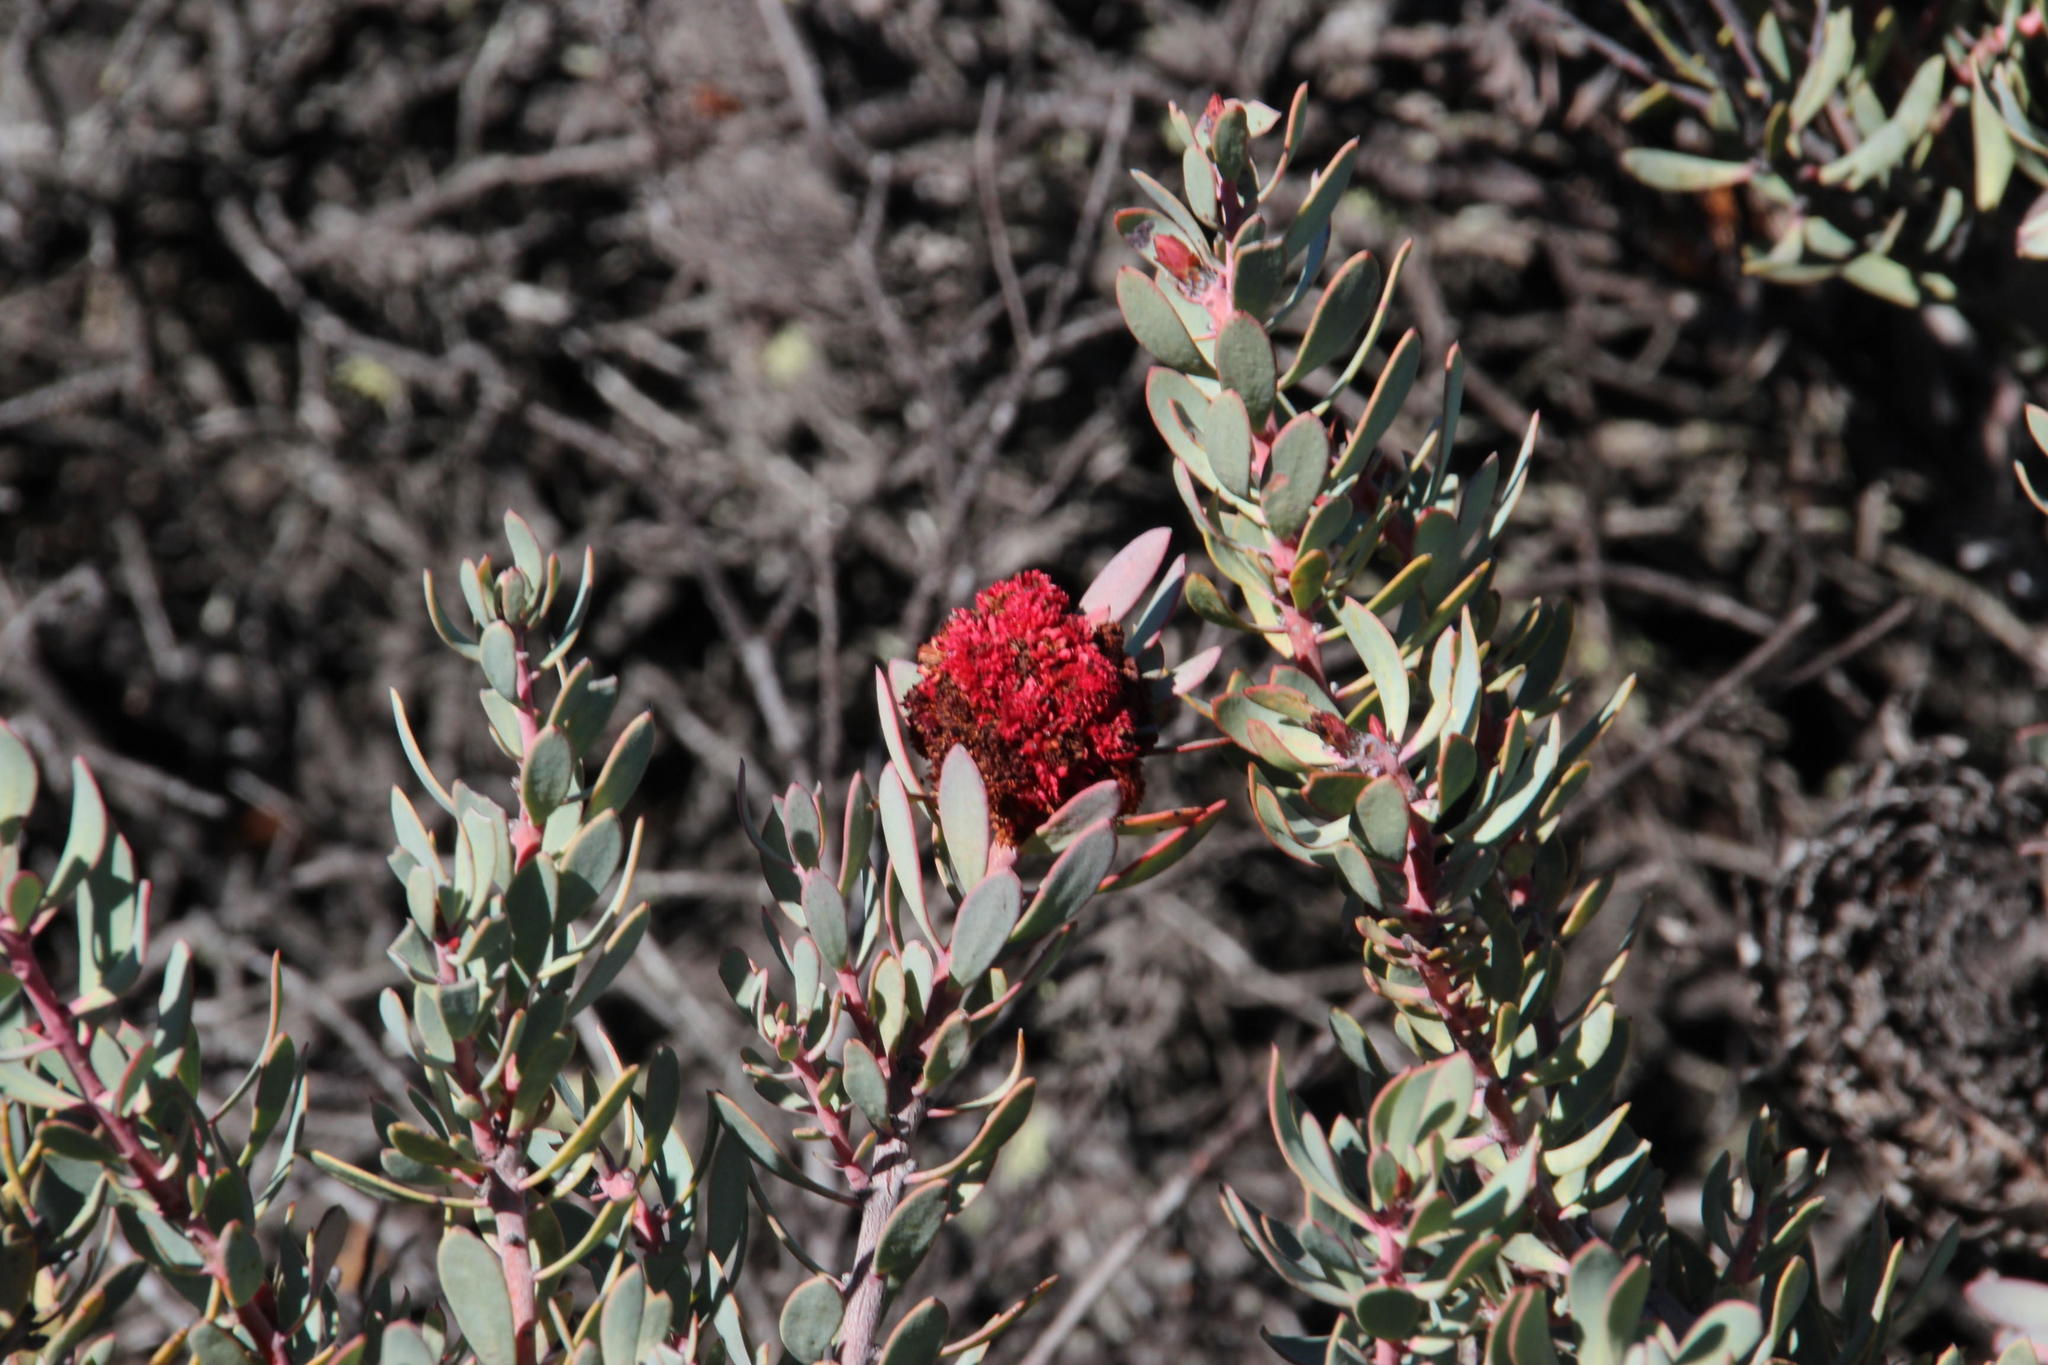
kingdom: Plantae
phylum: Tracheophyta
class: Magnoliopsida
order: Proteales
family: Proteaceae
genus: Protea
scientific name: Protea sulphurea
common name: Sulphur sugarbush
